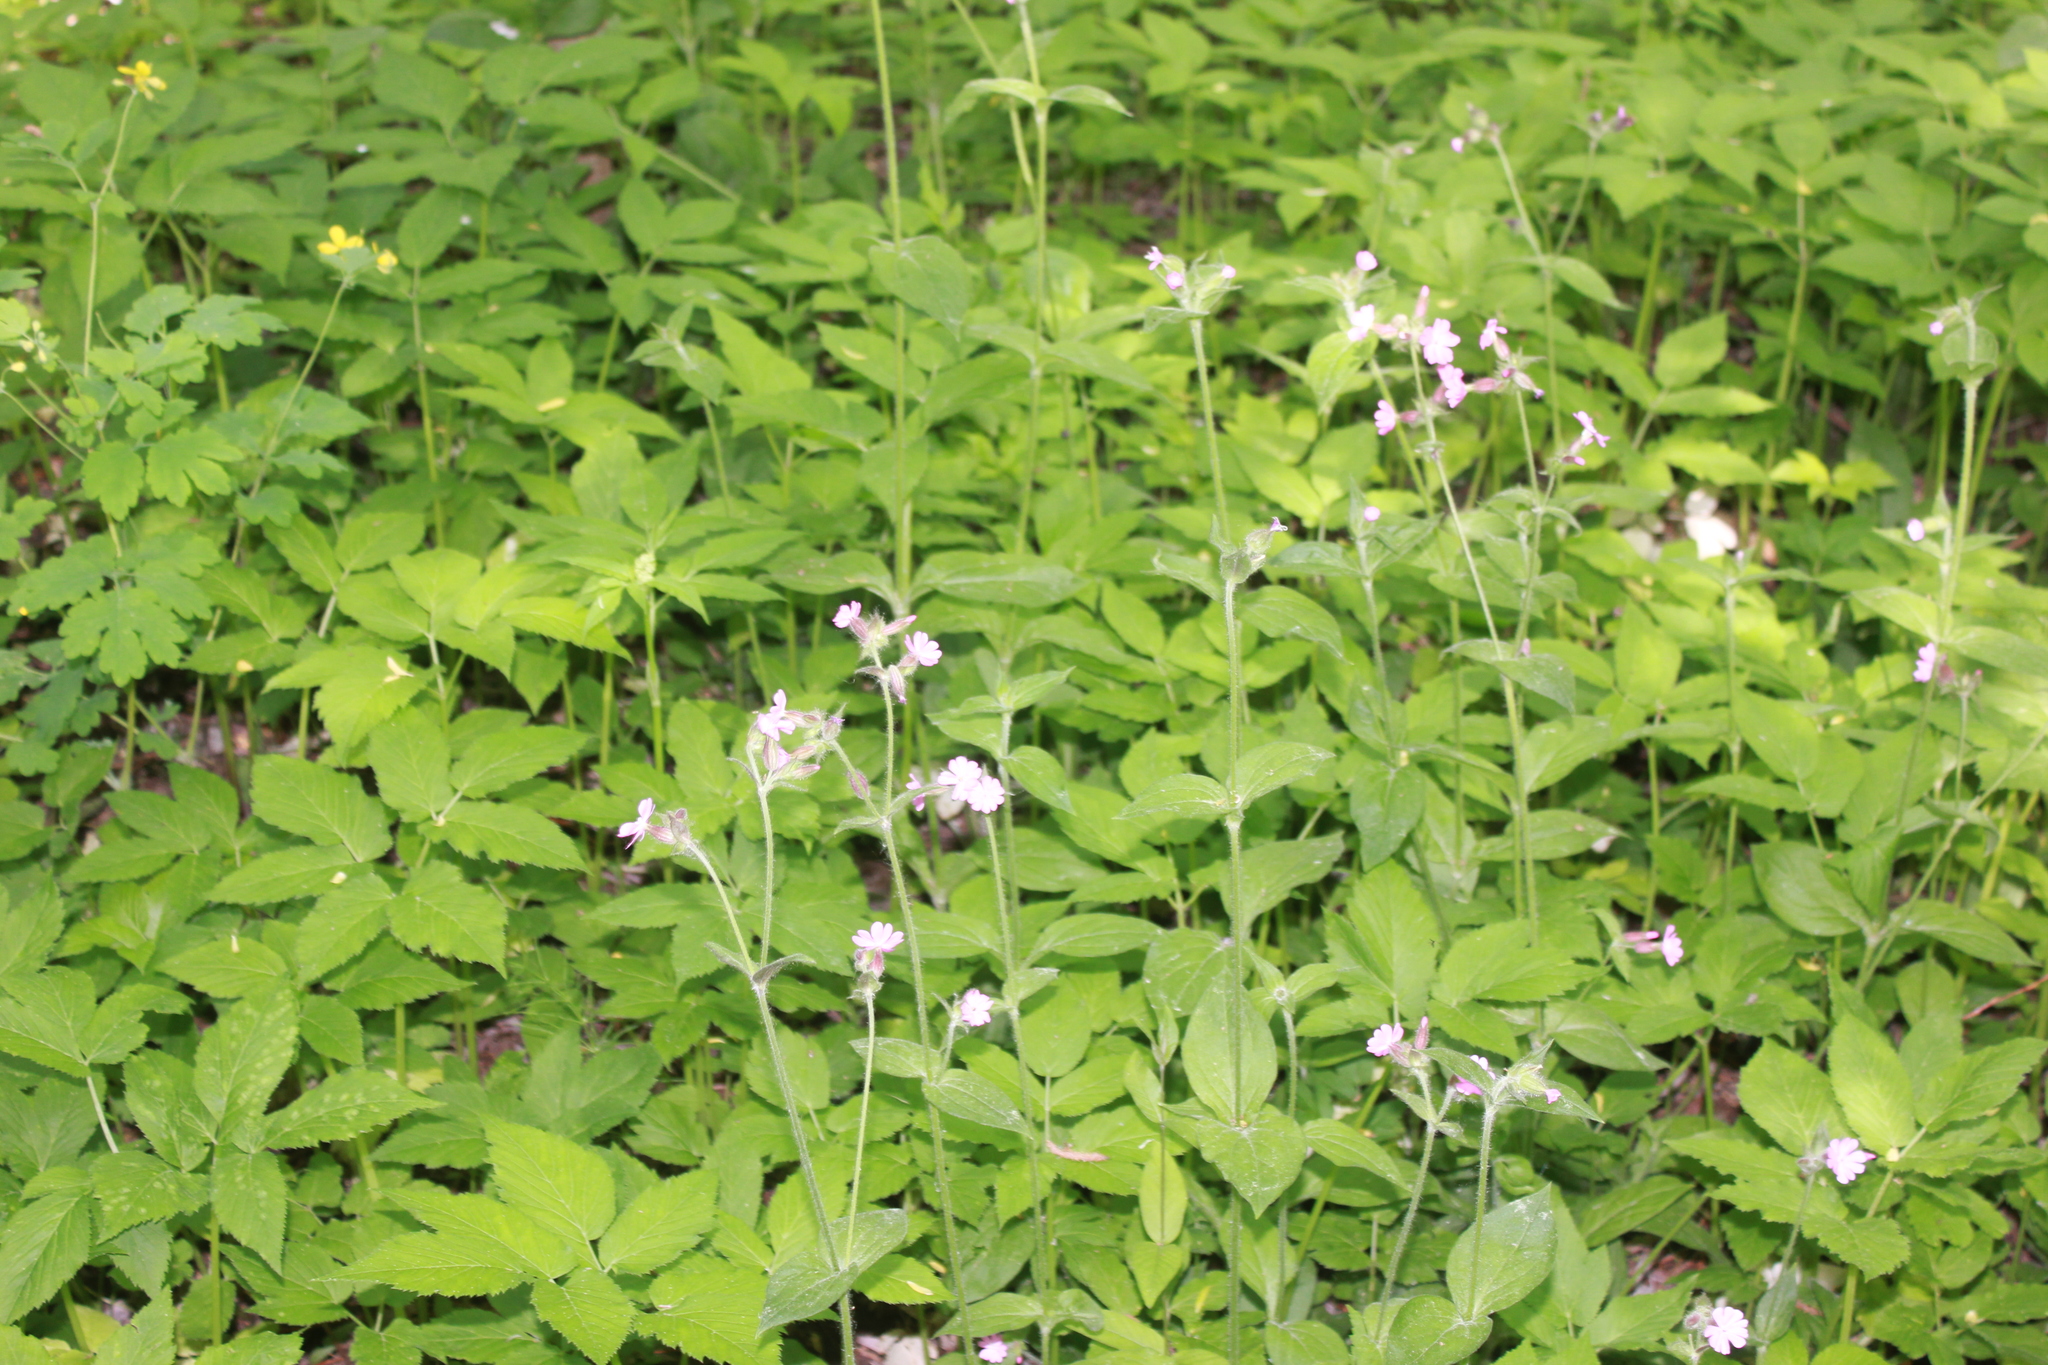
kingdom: Plantae
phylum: Tracheophyta
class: Magnoliopsida
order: Caryophyllales
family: Caryophyllaceae
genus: Silene
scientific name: Silene dioica
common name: Red campion
